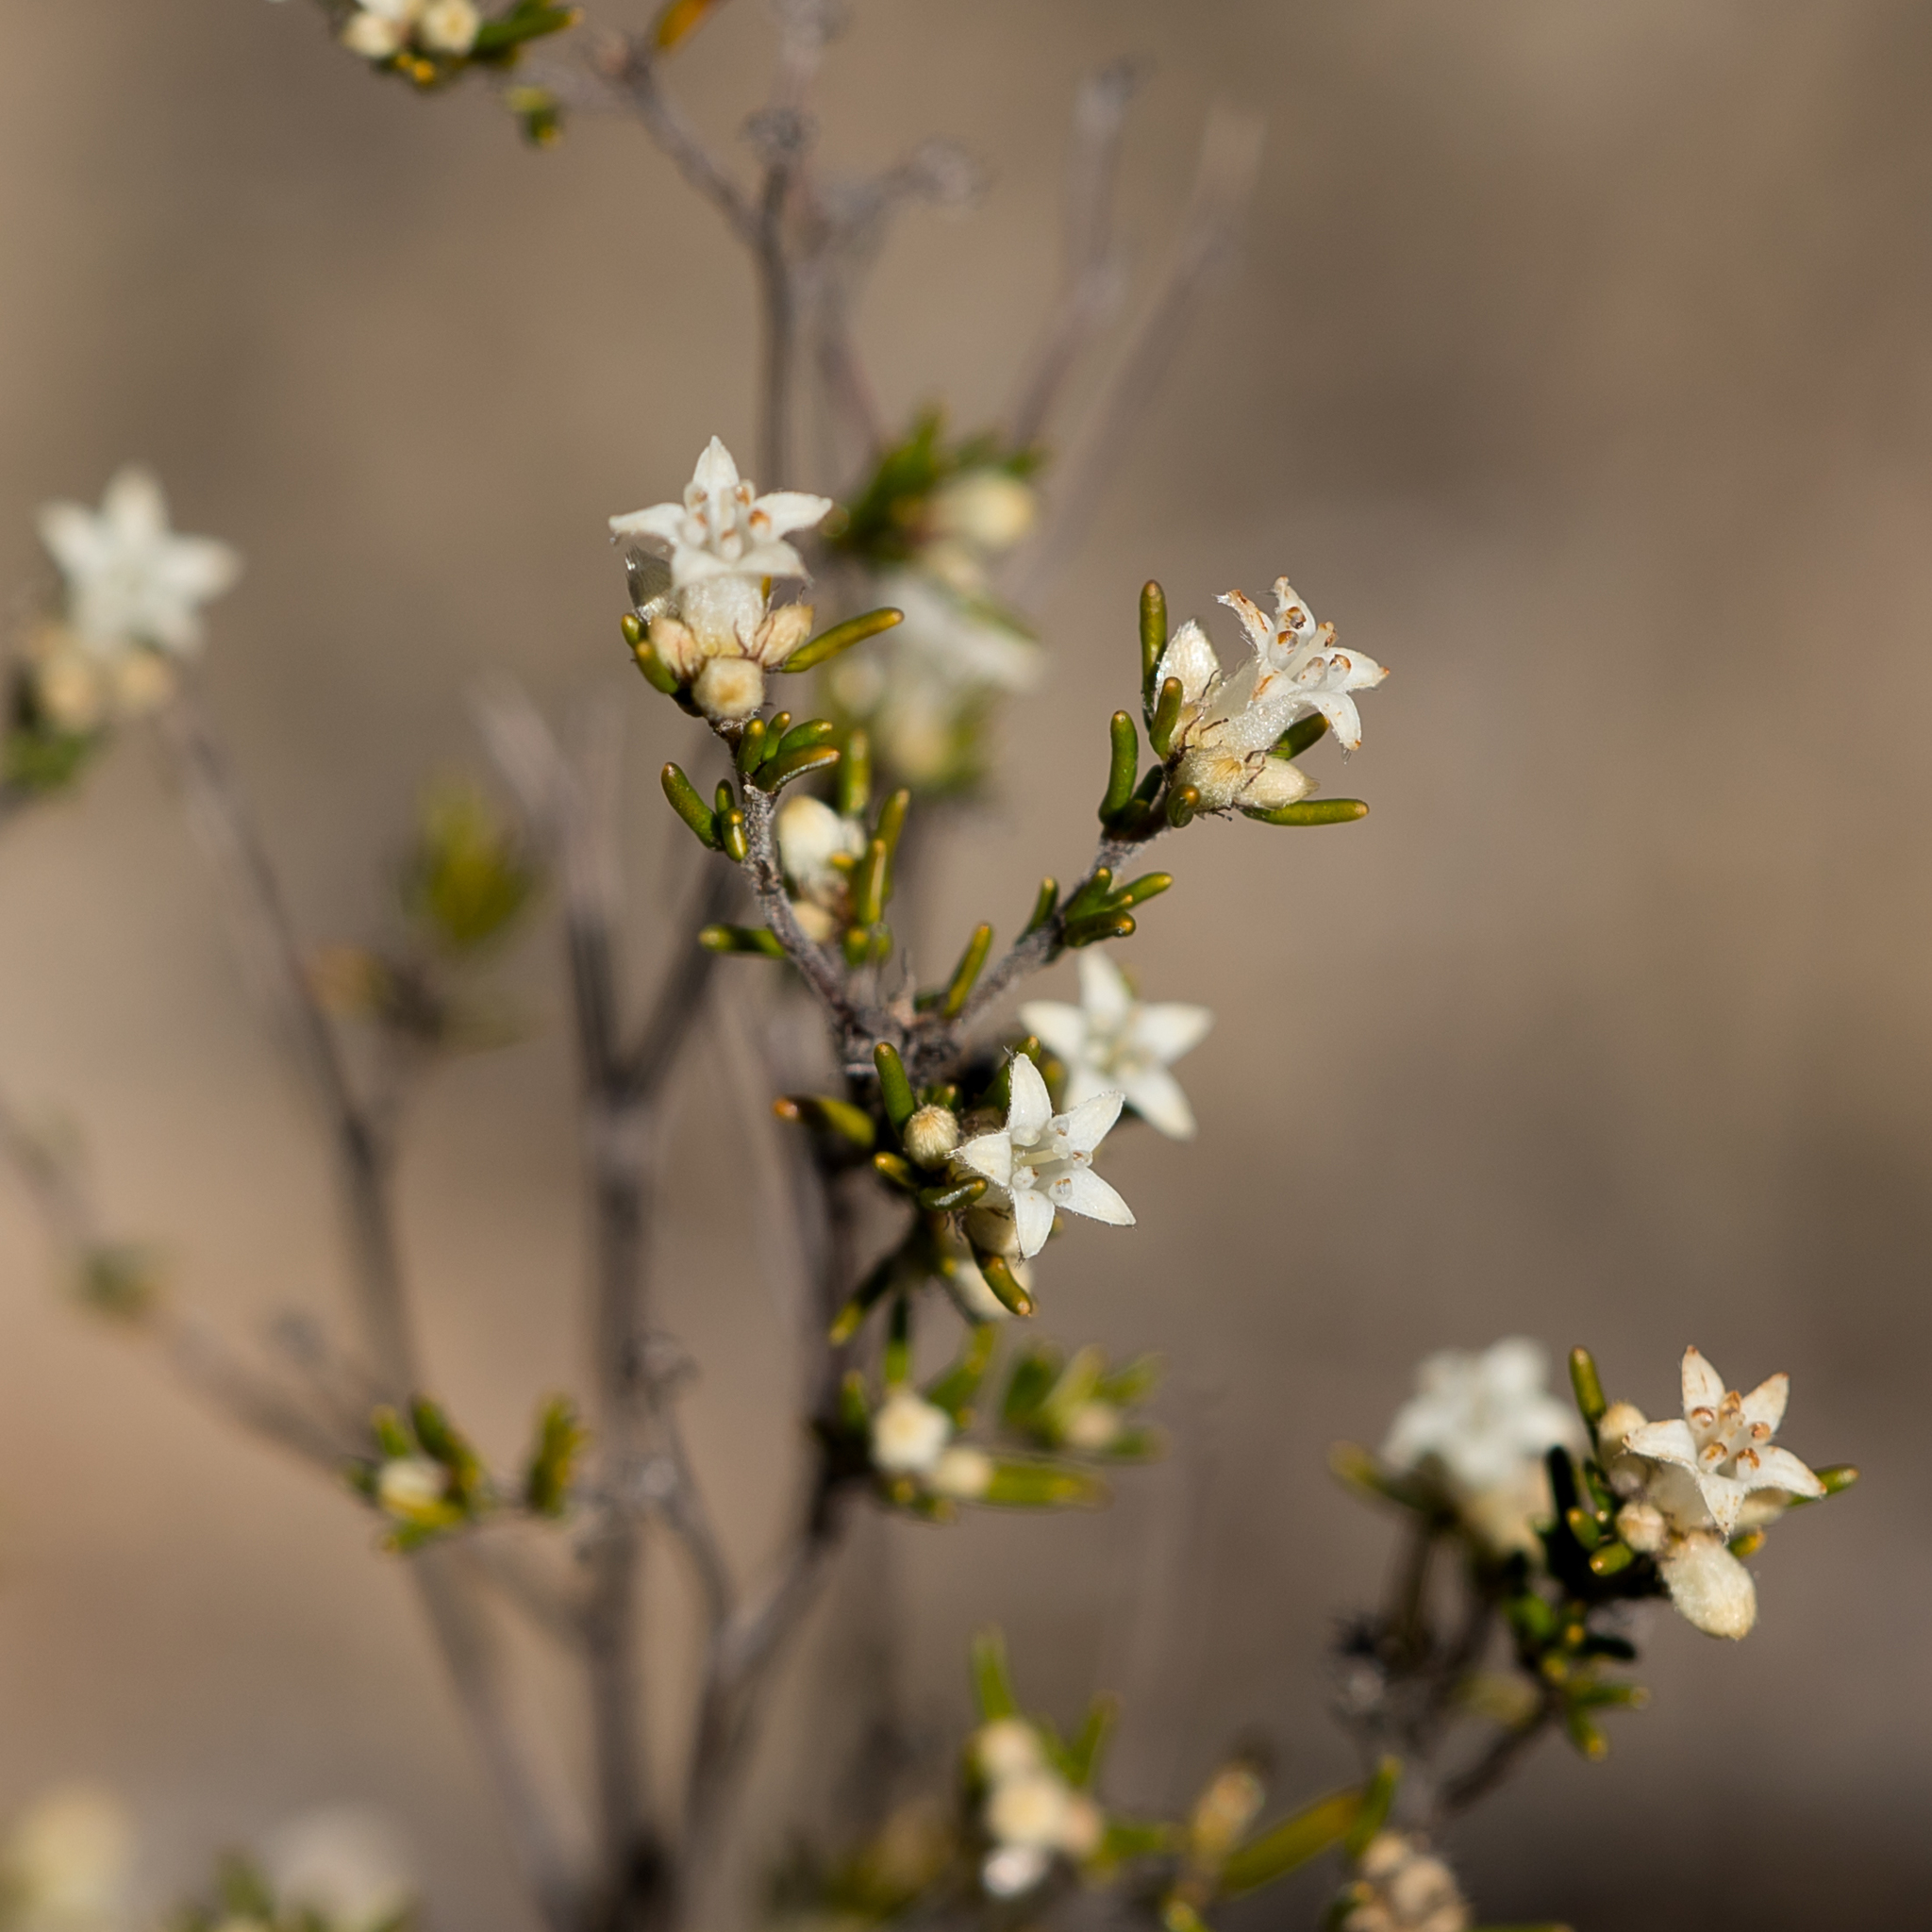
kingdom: Plantae
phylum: Tracheophyta
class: Magnoliopsida
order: Rosales
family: Rhamnaceae
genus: Cryptandra
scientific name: Cryptandra hispidula
